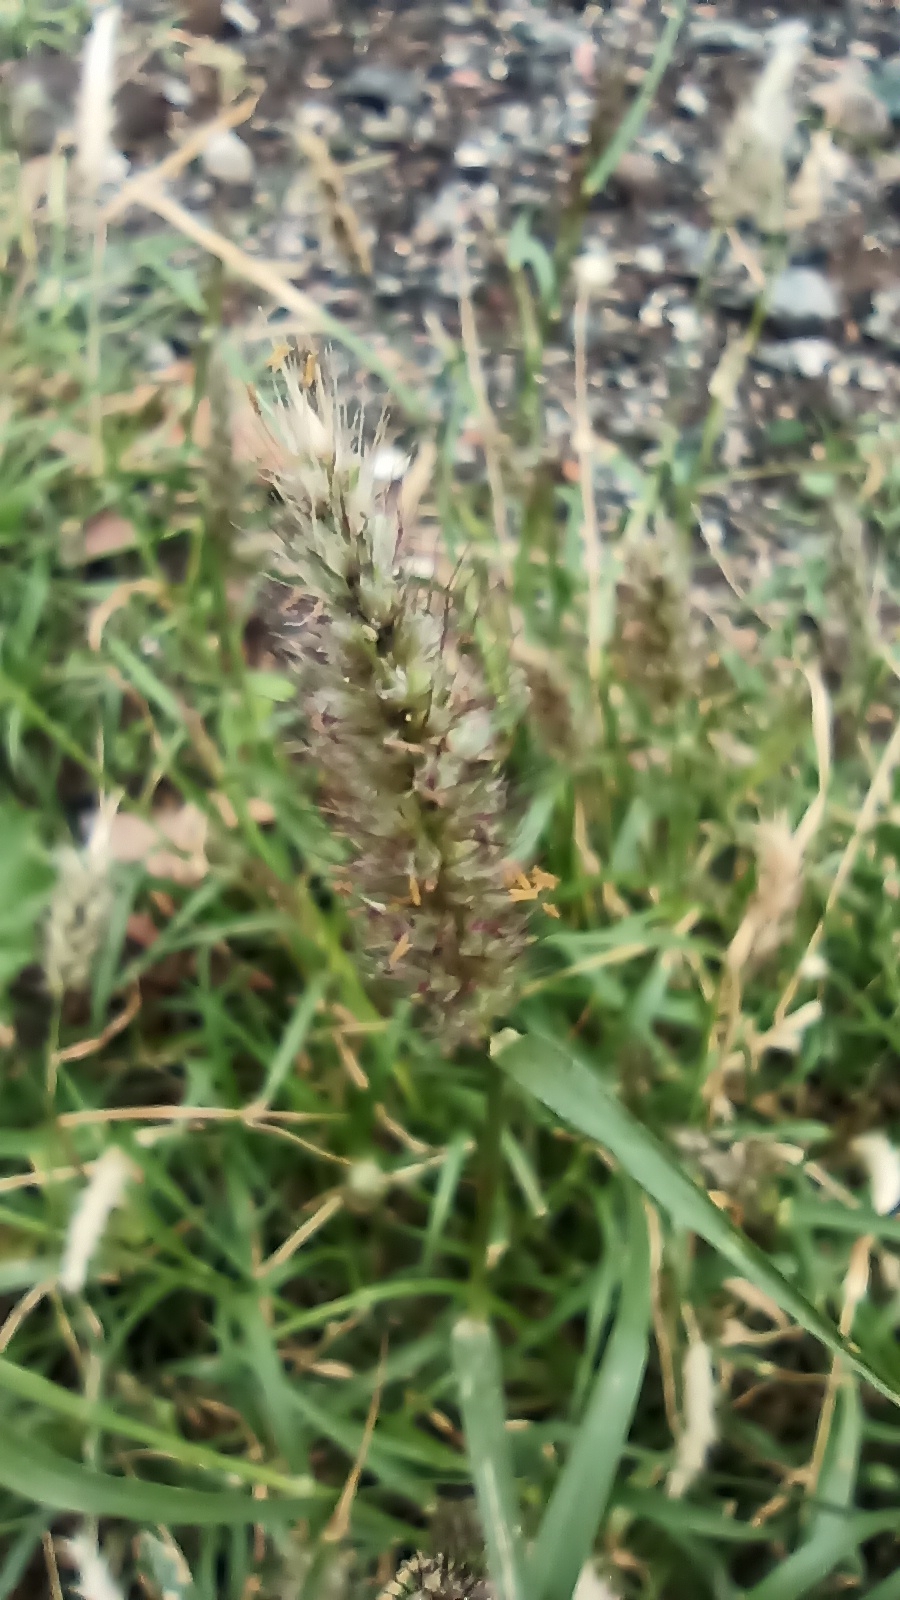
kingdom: Plantae
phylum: Tracheophyta
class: Liliopsida
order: Poales
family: Poaceae
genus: Cenchrus
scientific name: Cenchrus ciliaris
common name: Buffelgrass
